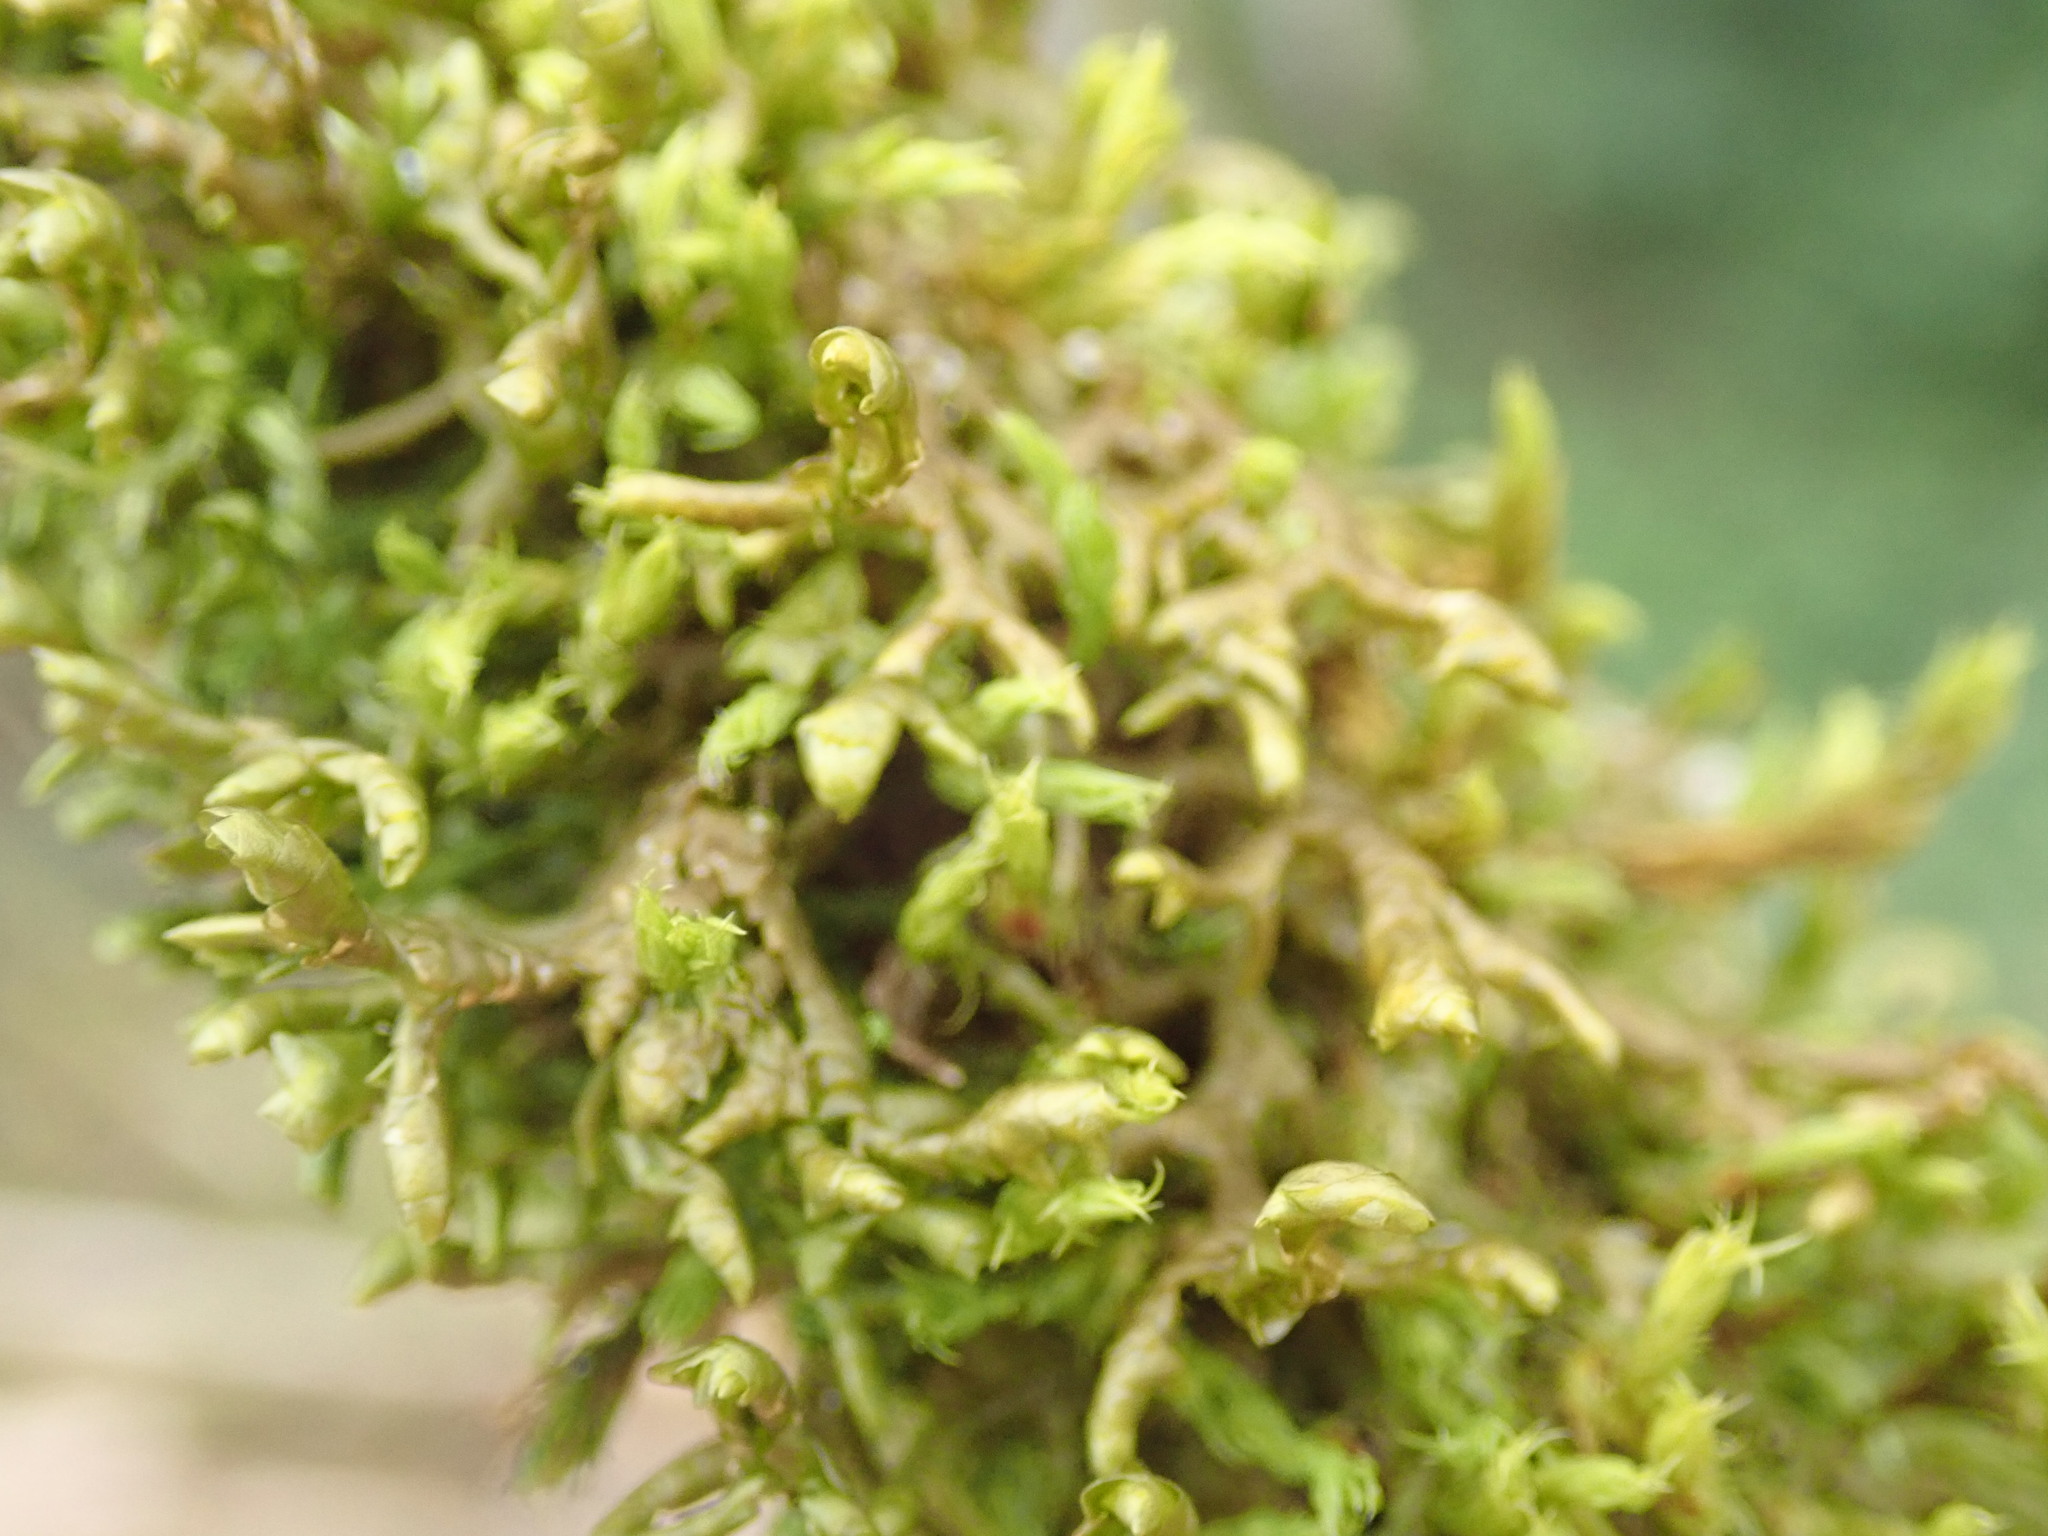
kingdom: Plantae
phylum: Marchantiophyta
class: Jungermanniopsida
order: Porellales
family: Porellaceae
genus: Porella
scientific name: Porella navicularis
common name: Tree ruffle liverwort
